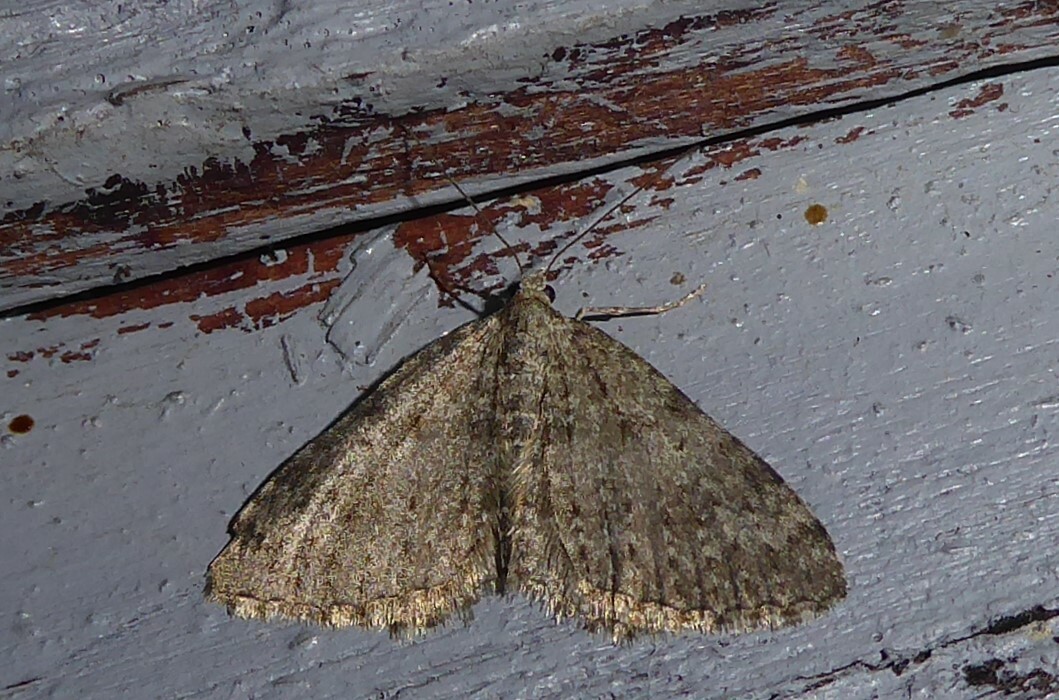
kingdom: Animalia
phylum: Arthropoda
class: Insecta
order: Lepidoptera
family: Geometridae
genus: Helastia
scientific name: Helastia corcularia
